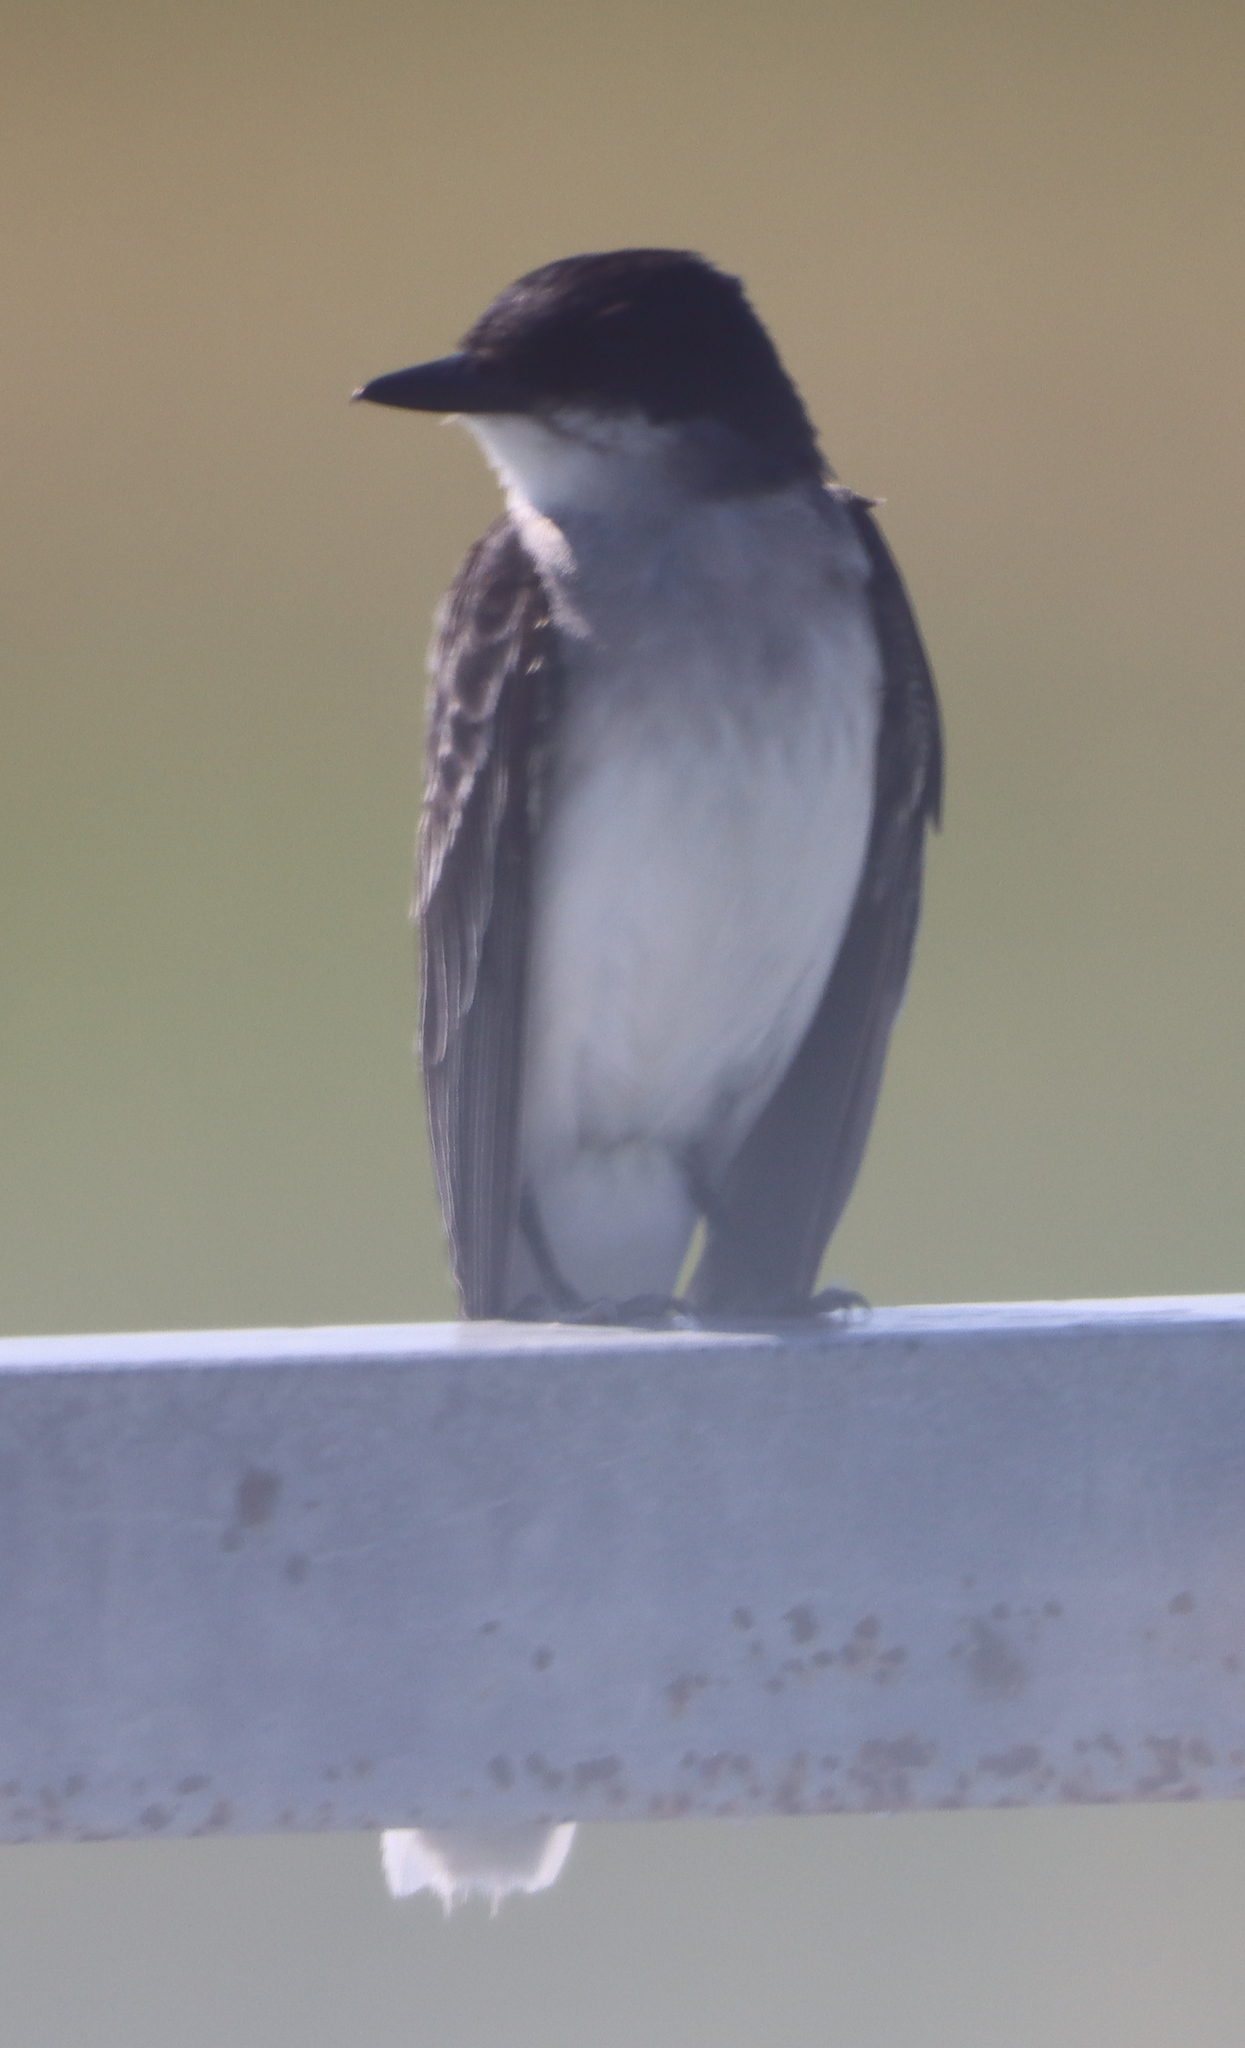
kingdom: Animalia
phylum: Chordata
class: Aves
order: Passeriformes
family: Tyrannidae
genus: Tyrannus
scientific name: Tyrannus tyrannus
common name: Eastern kingbird
